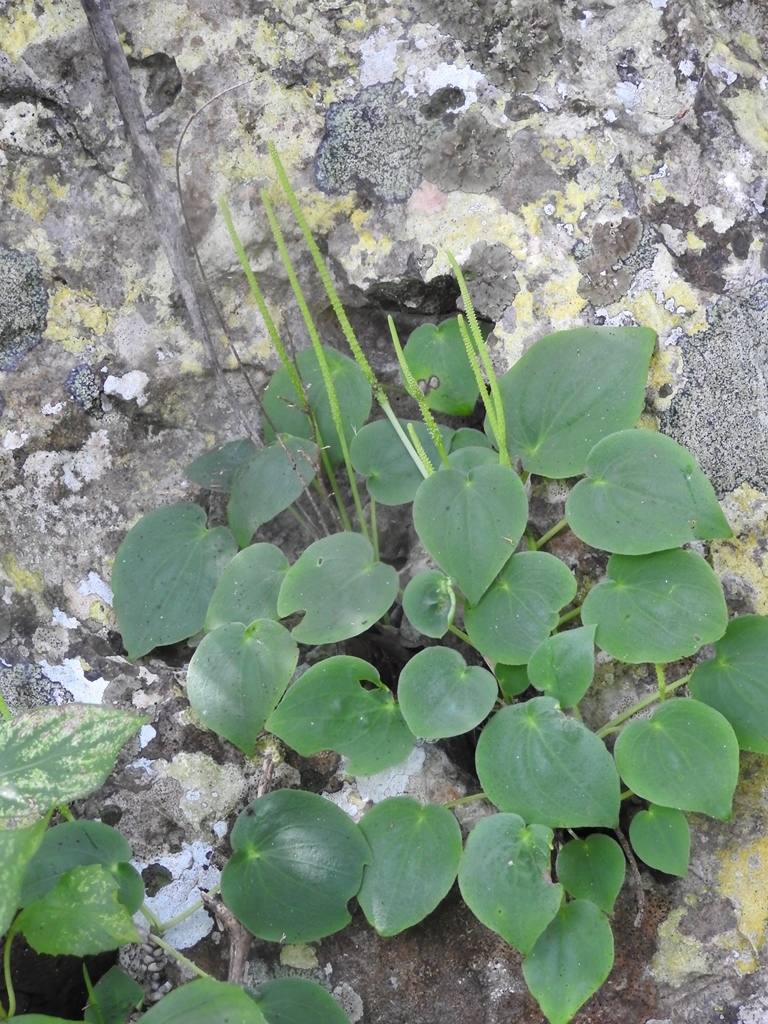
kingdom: Plantae
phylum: Tracheophyta
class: Magnoliopsida
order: Piperales
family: Piperaceae
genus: Peperomia
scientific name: Peperomia lanceolatopeltata
